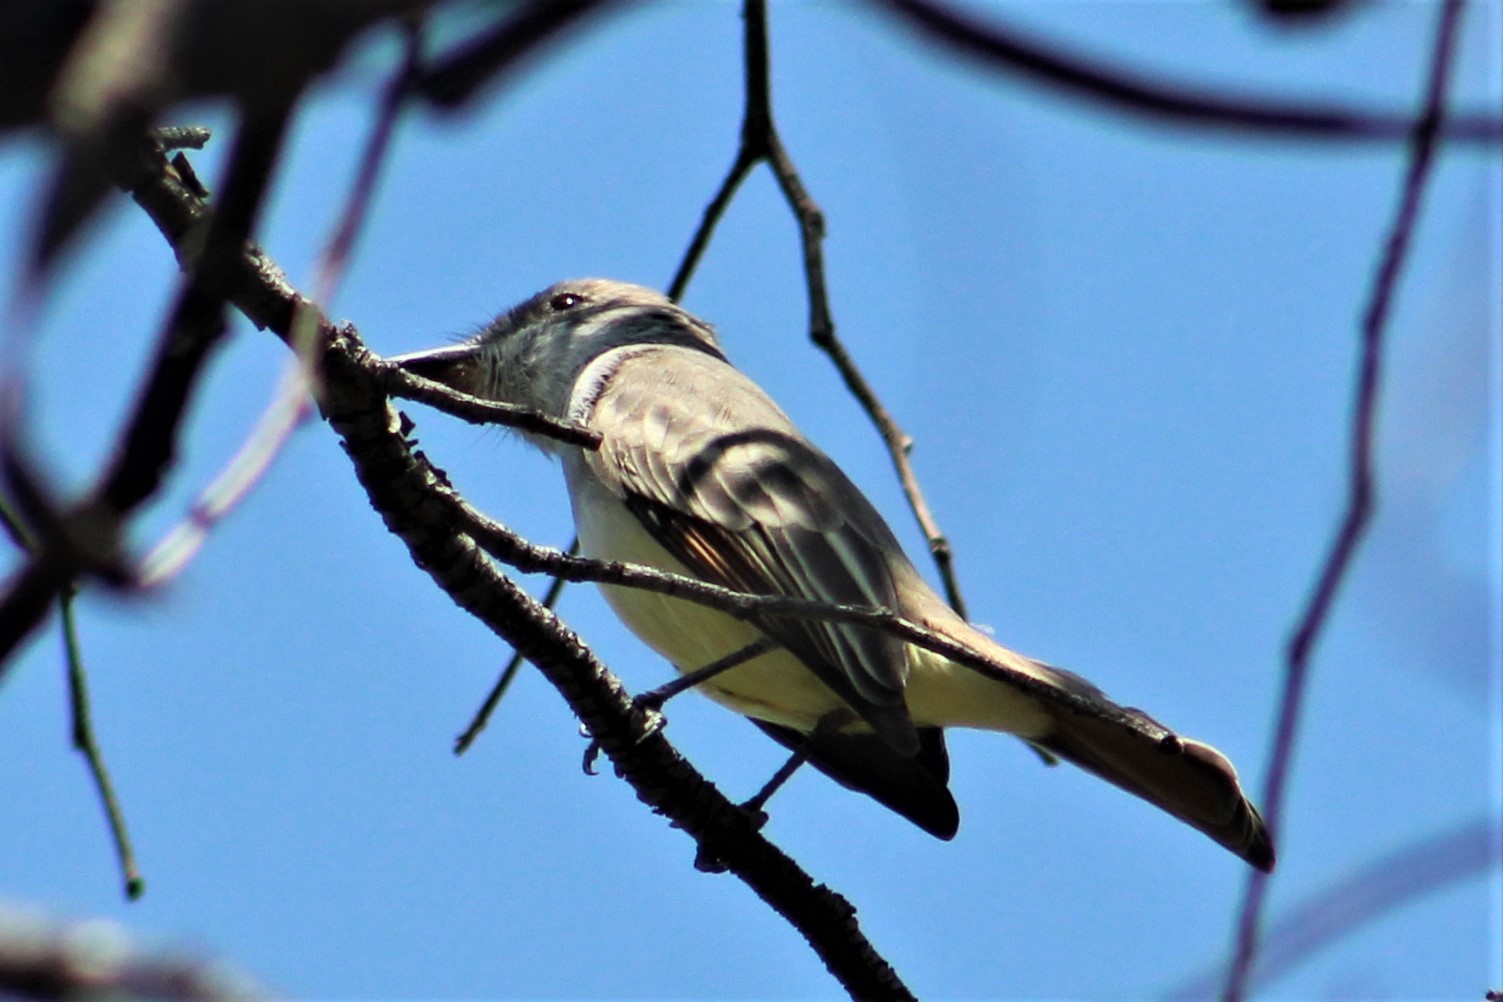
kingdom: Animalia
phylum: Chordata
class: Aves
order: Passeriformes
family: Tyrannidae
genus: Myiarchus
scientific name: Myiarchus tyrannulus
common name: Brown-crested flycatcher
